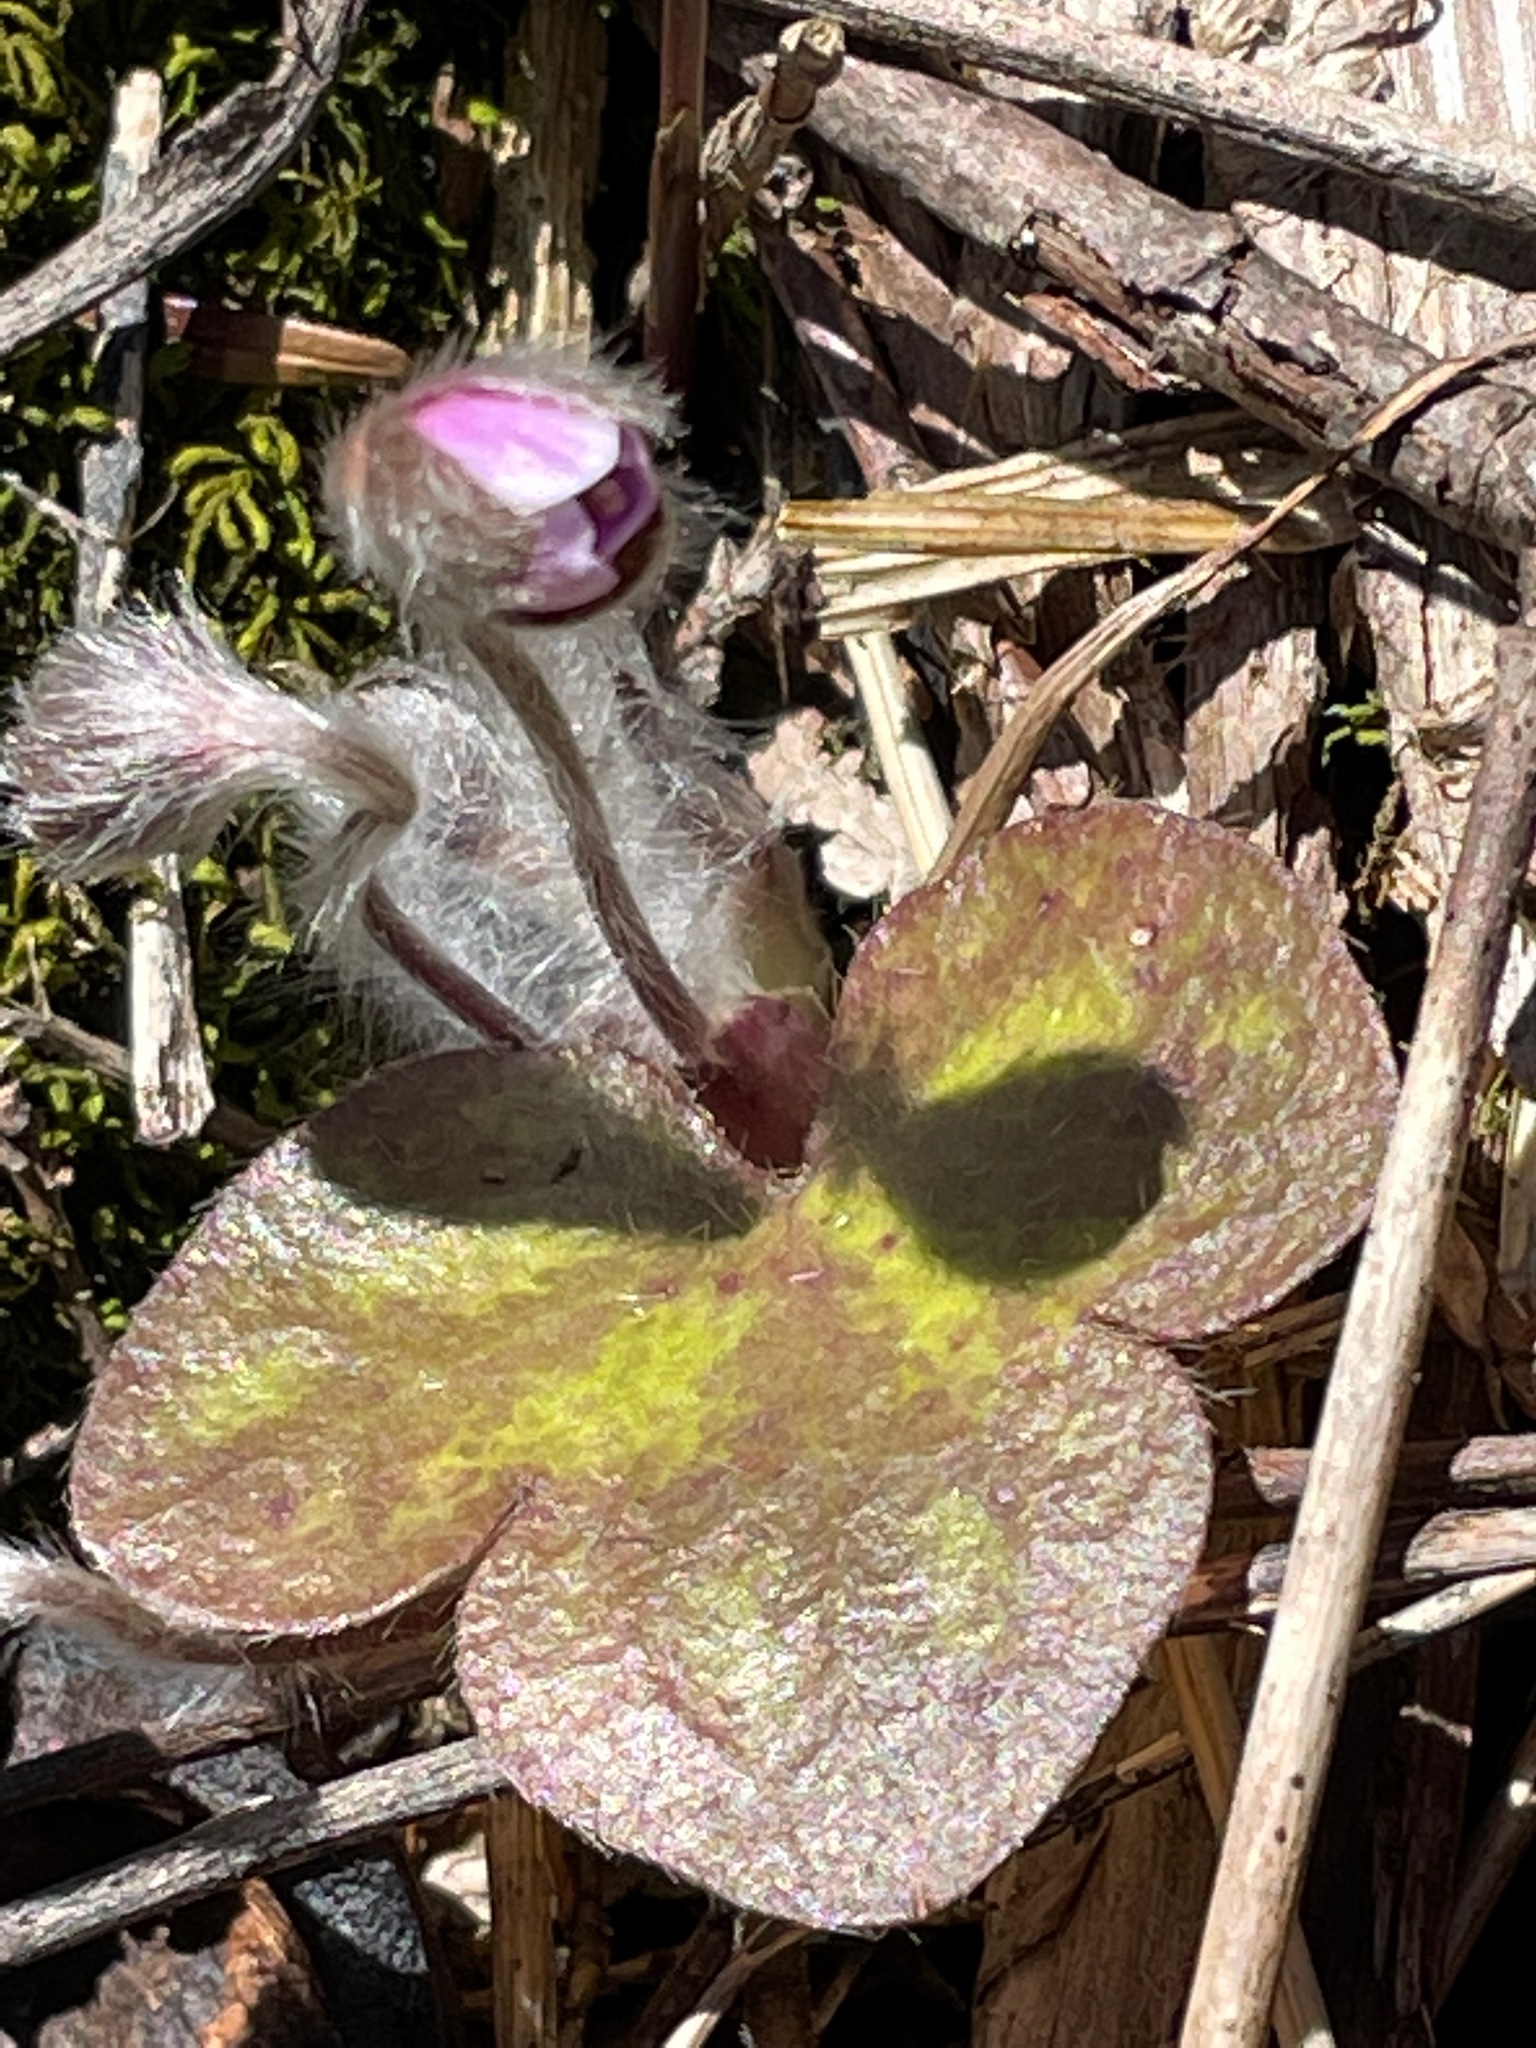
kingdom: Plantae
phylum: Tracheophyta
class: Magnoliopsida
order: Ranunculales
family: Ranunculaceae
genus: Hepatica
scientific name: Hepatica americana
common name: American hepatica
